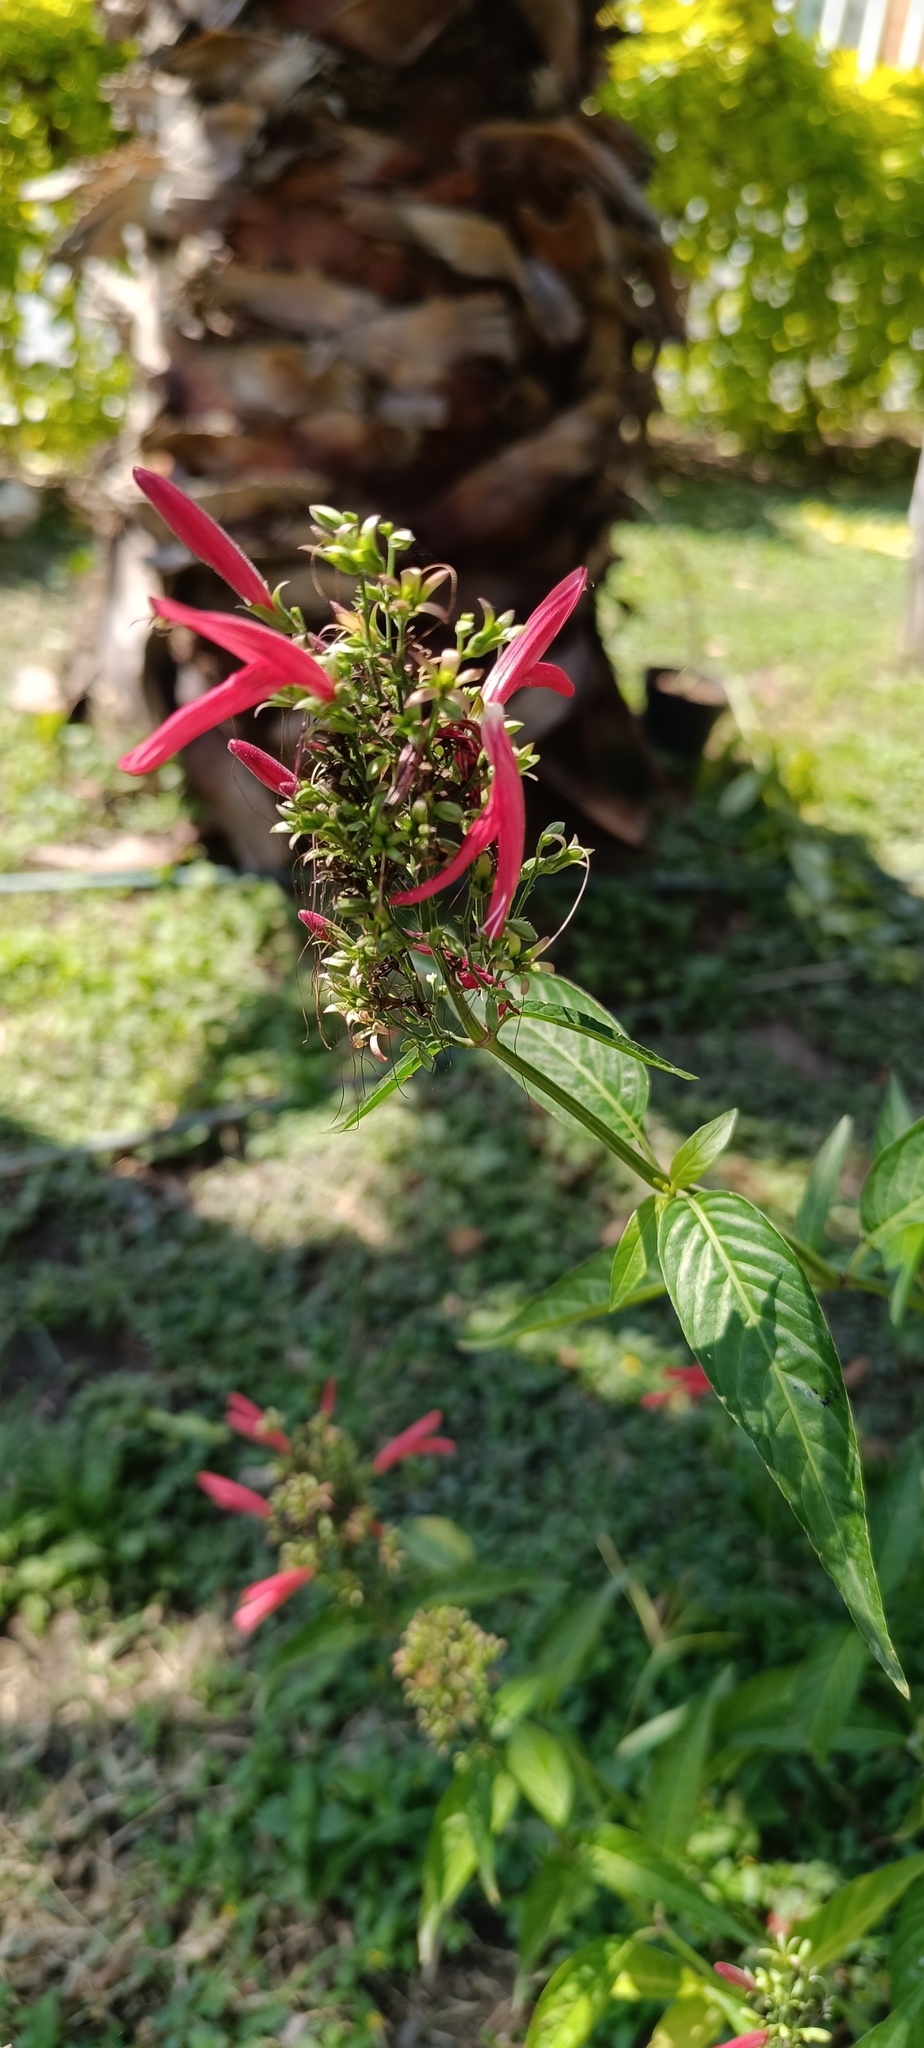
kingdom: Plantae
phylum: Tracheophyta
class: Magnoliopsida
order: Lamiales
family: Acanthaceae
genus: Dianthera
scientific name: Dianthera secunda
